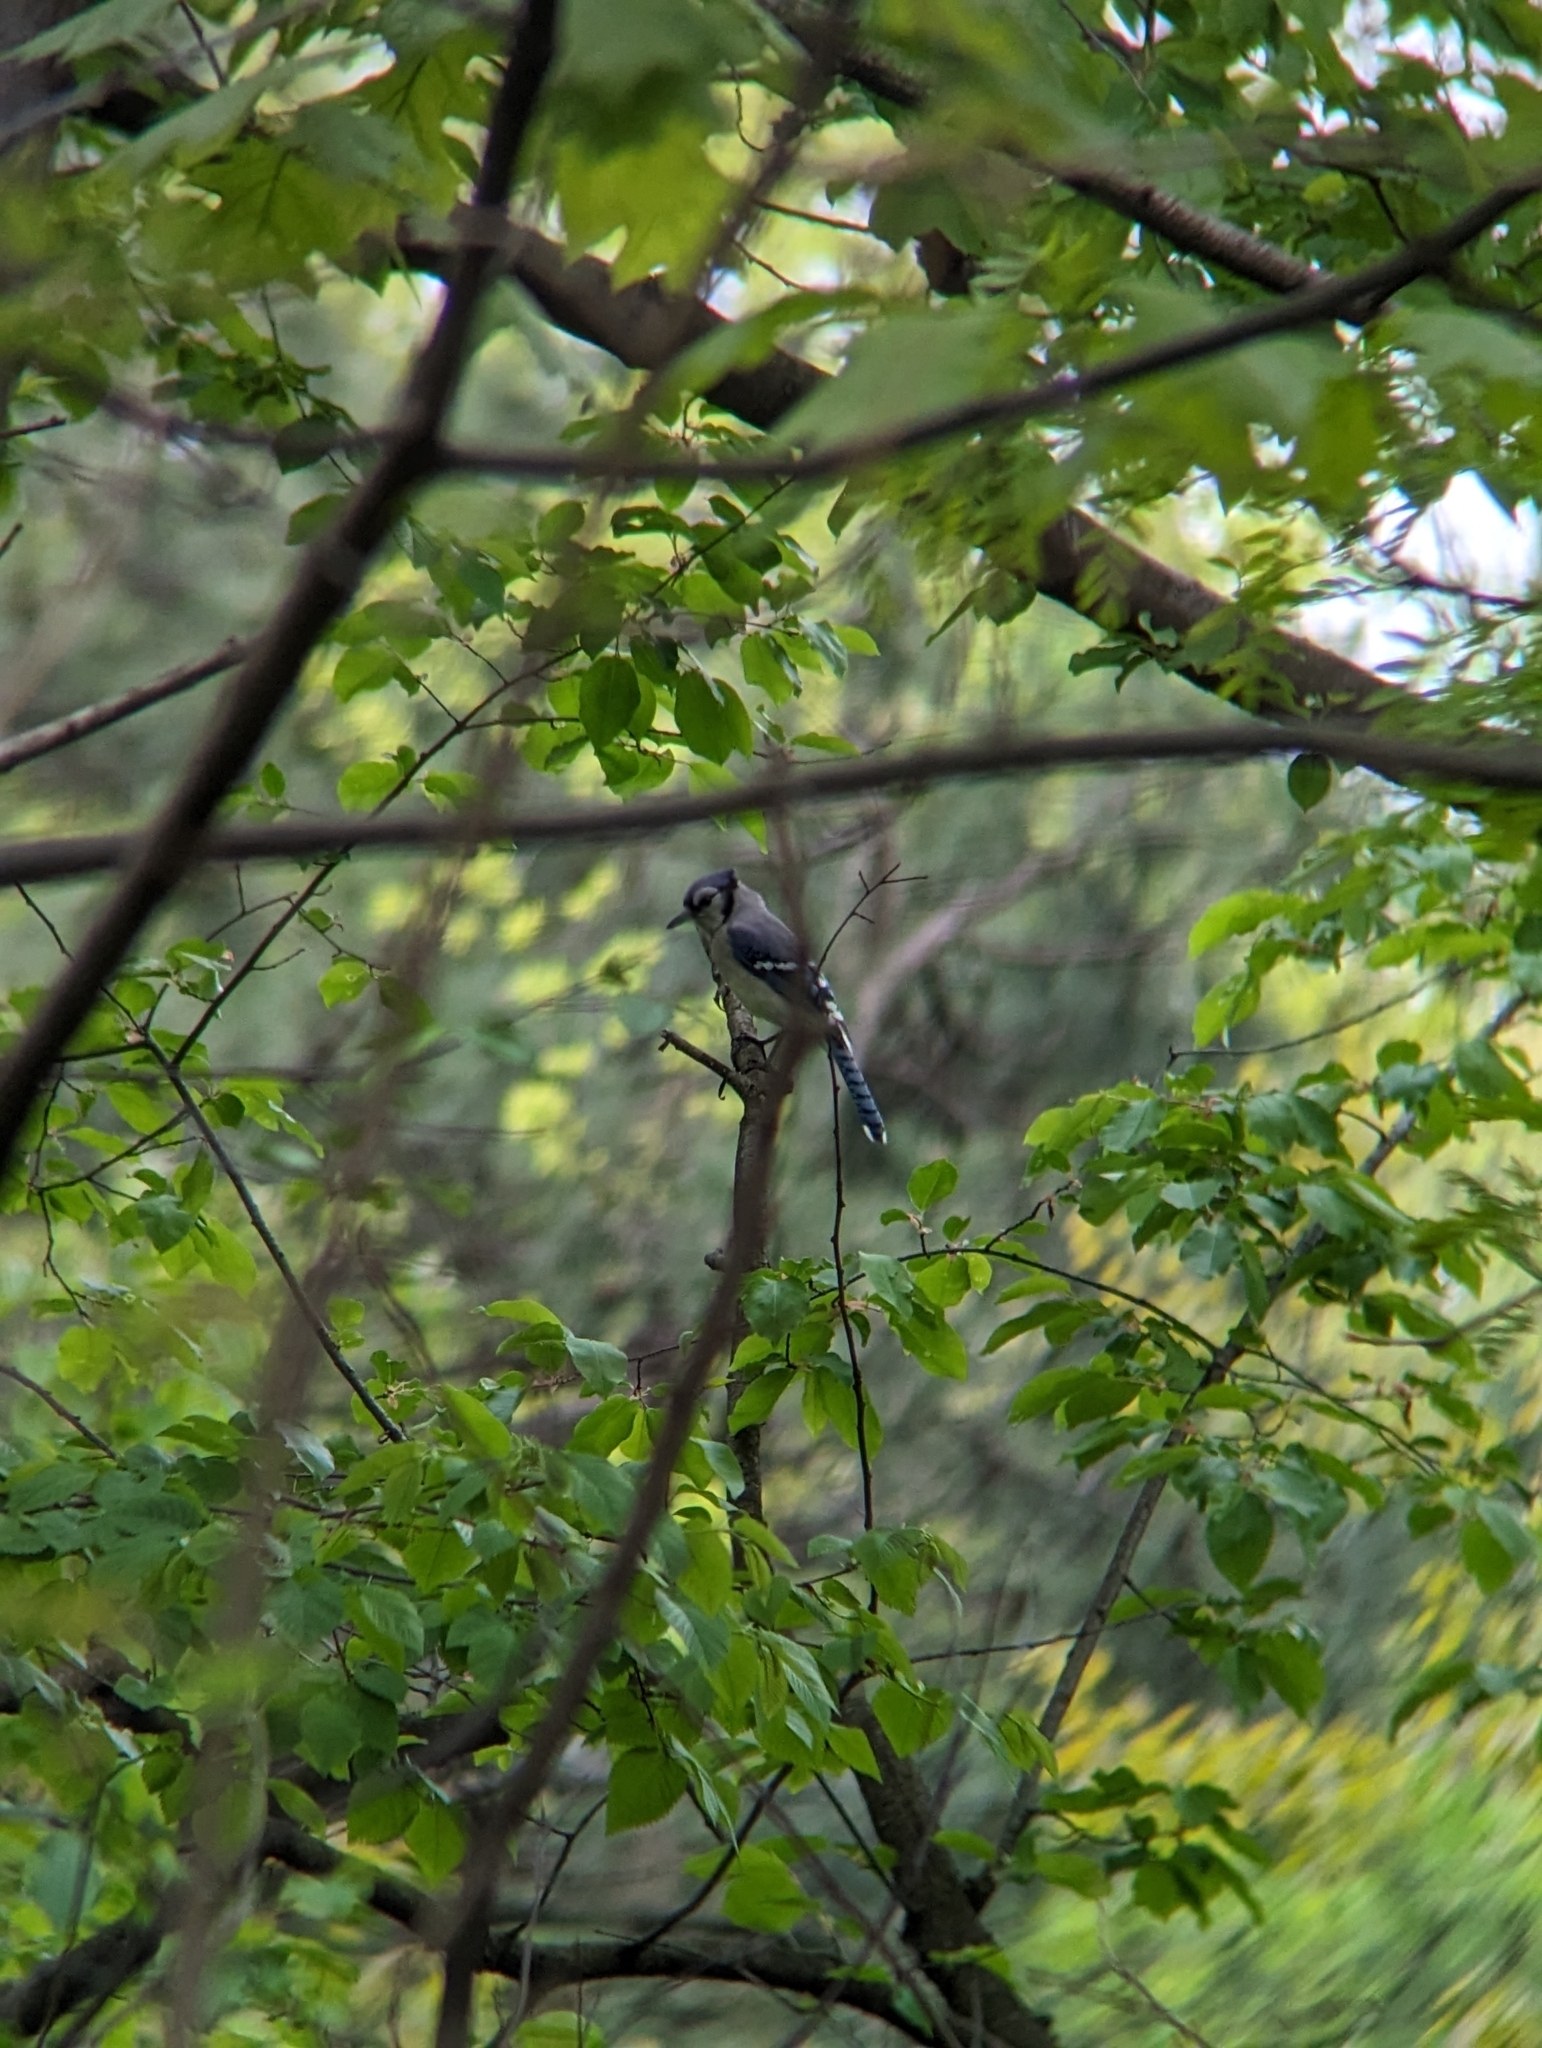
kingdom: Animalia
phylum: Chordata
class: Aves
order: Passeriformes
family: Corvidae
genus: Cyanocitta
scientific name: Cyanocitta cristata
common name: Blue jay
